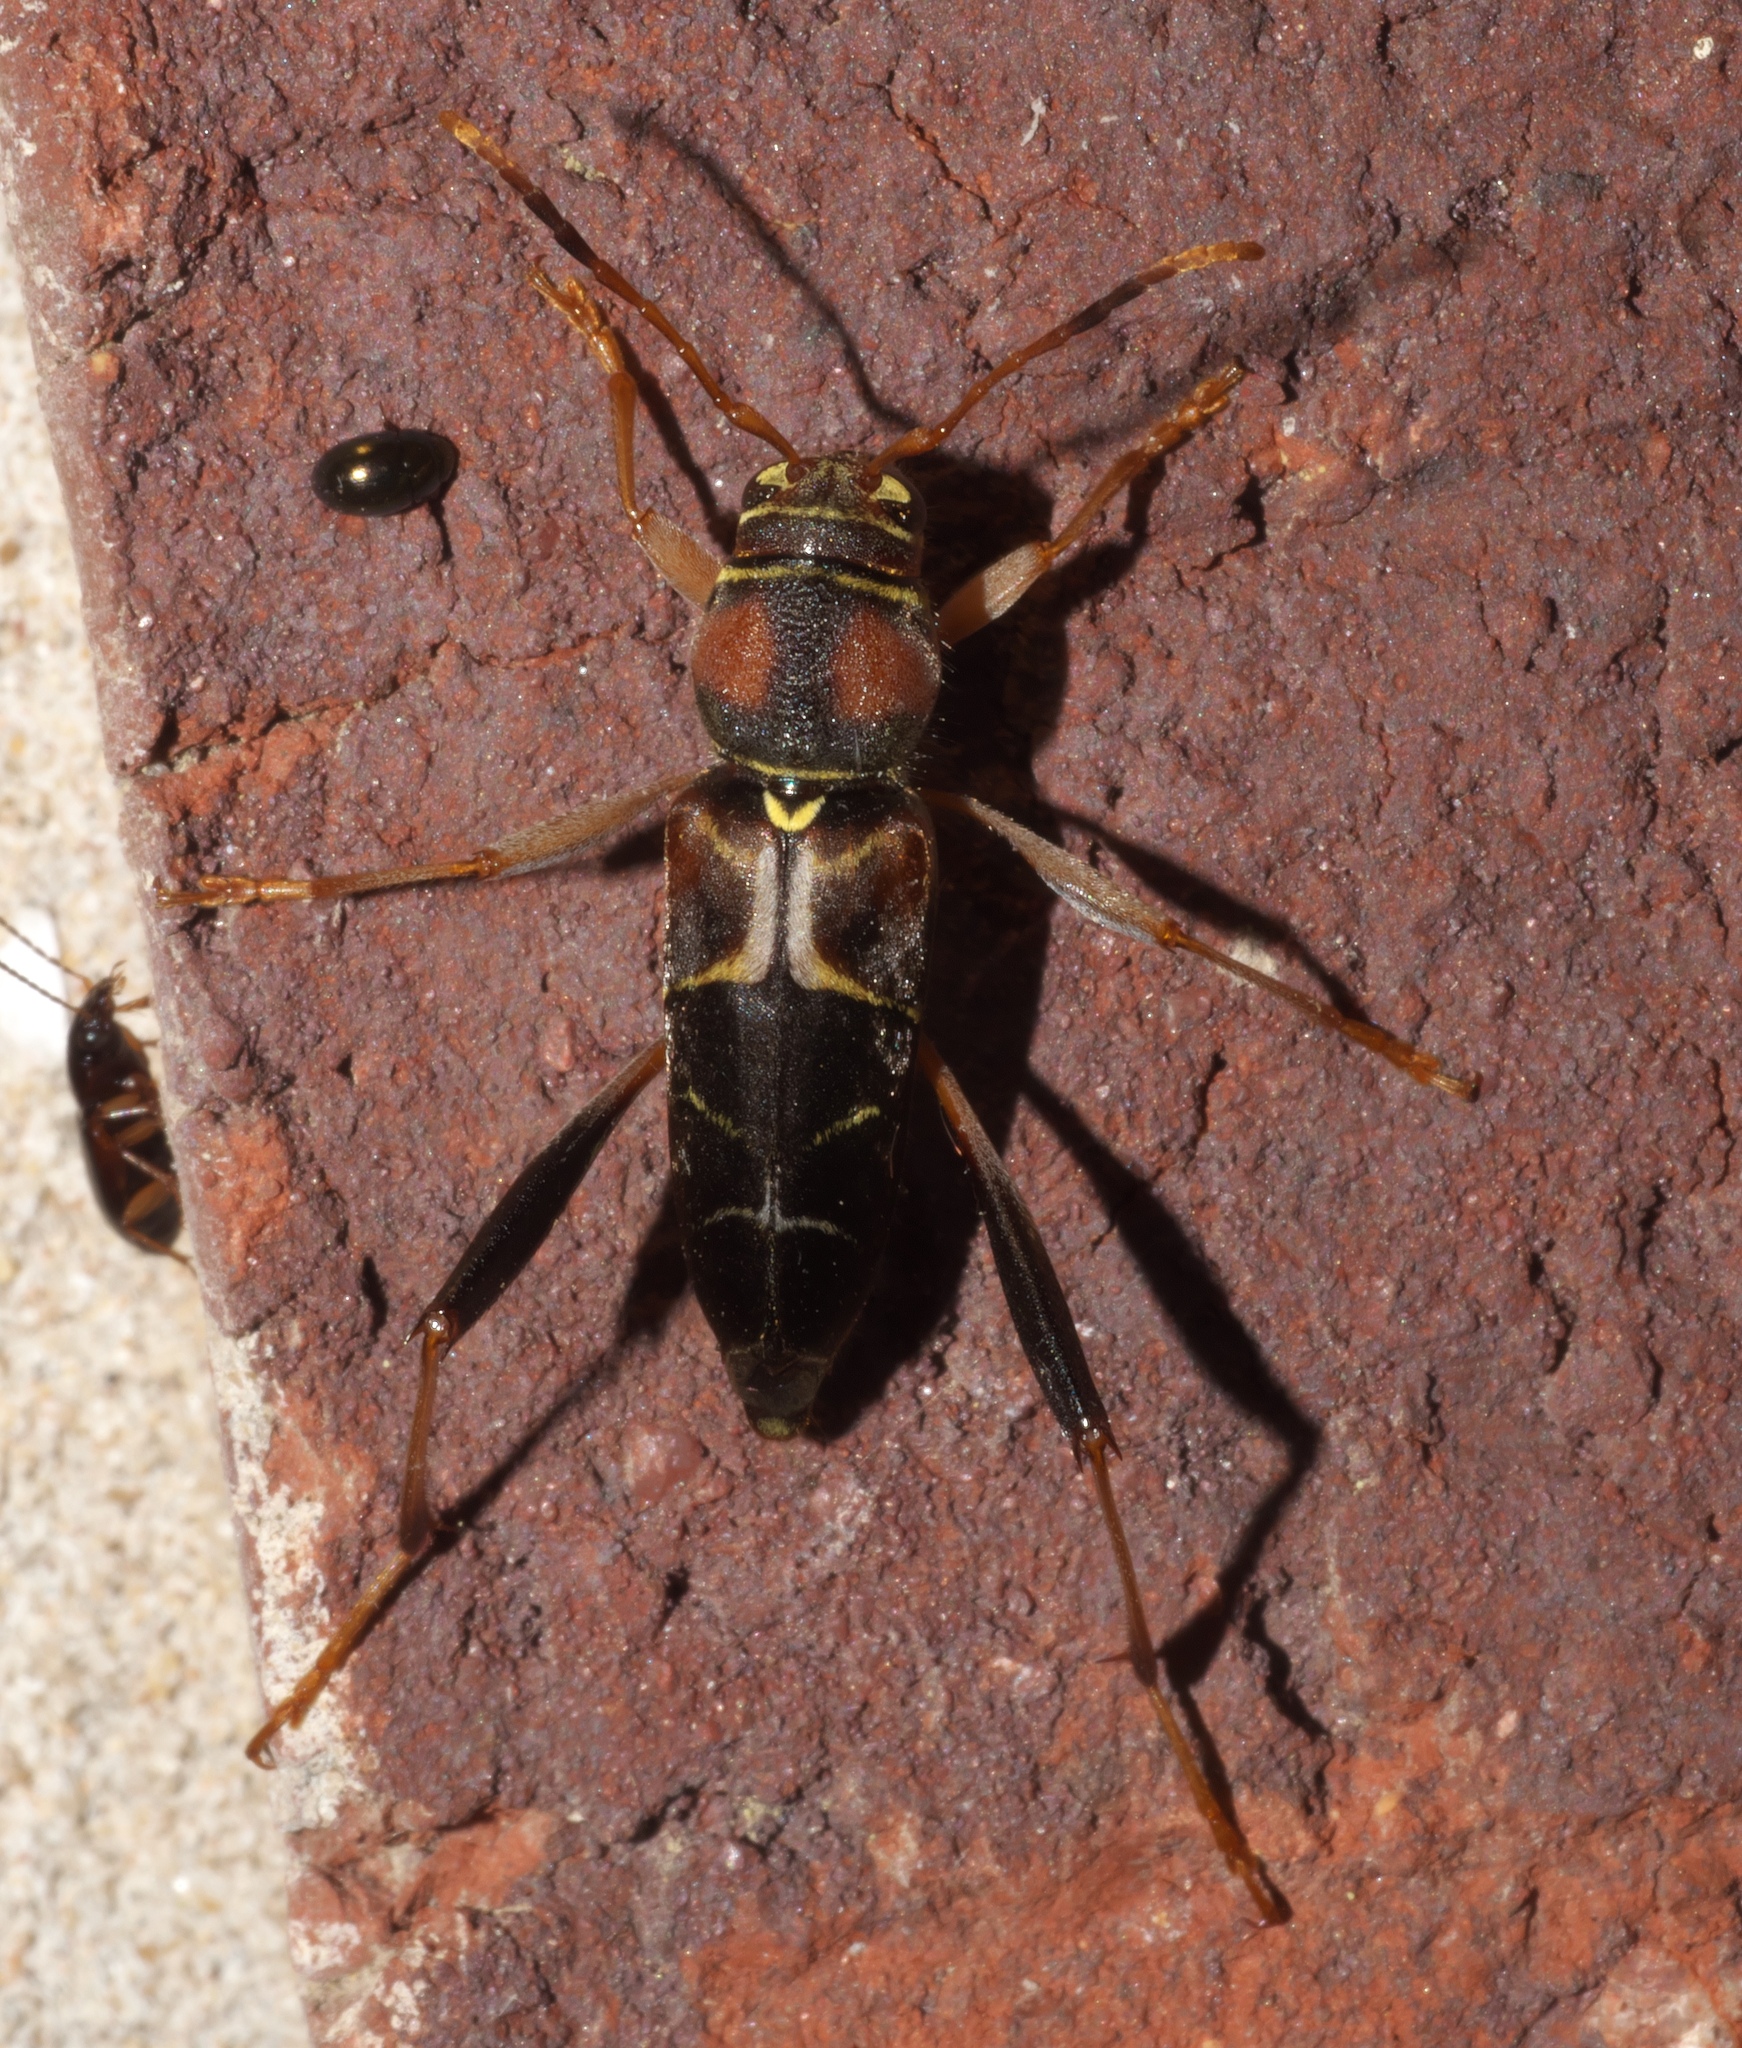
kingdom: Animalia
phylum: Arthropoda
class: Insecta
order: Coleoptera
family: Cerambycidae
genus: Neoclytus
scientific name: Neoclytus mucronatus
